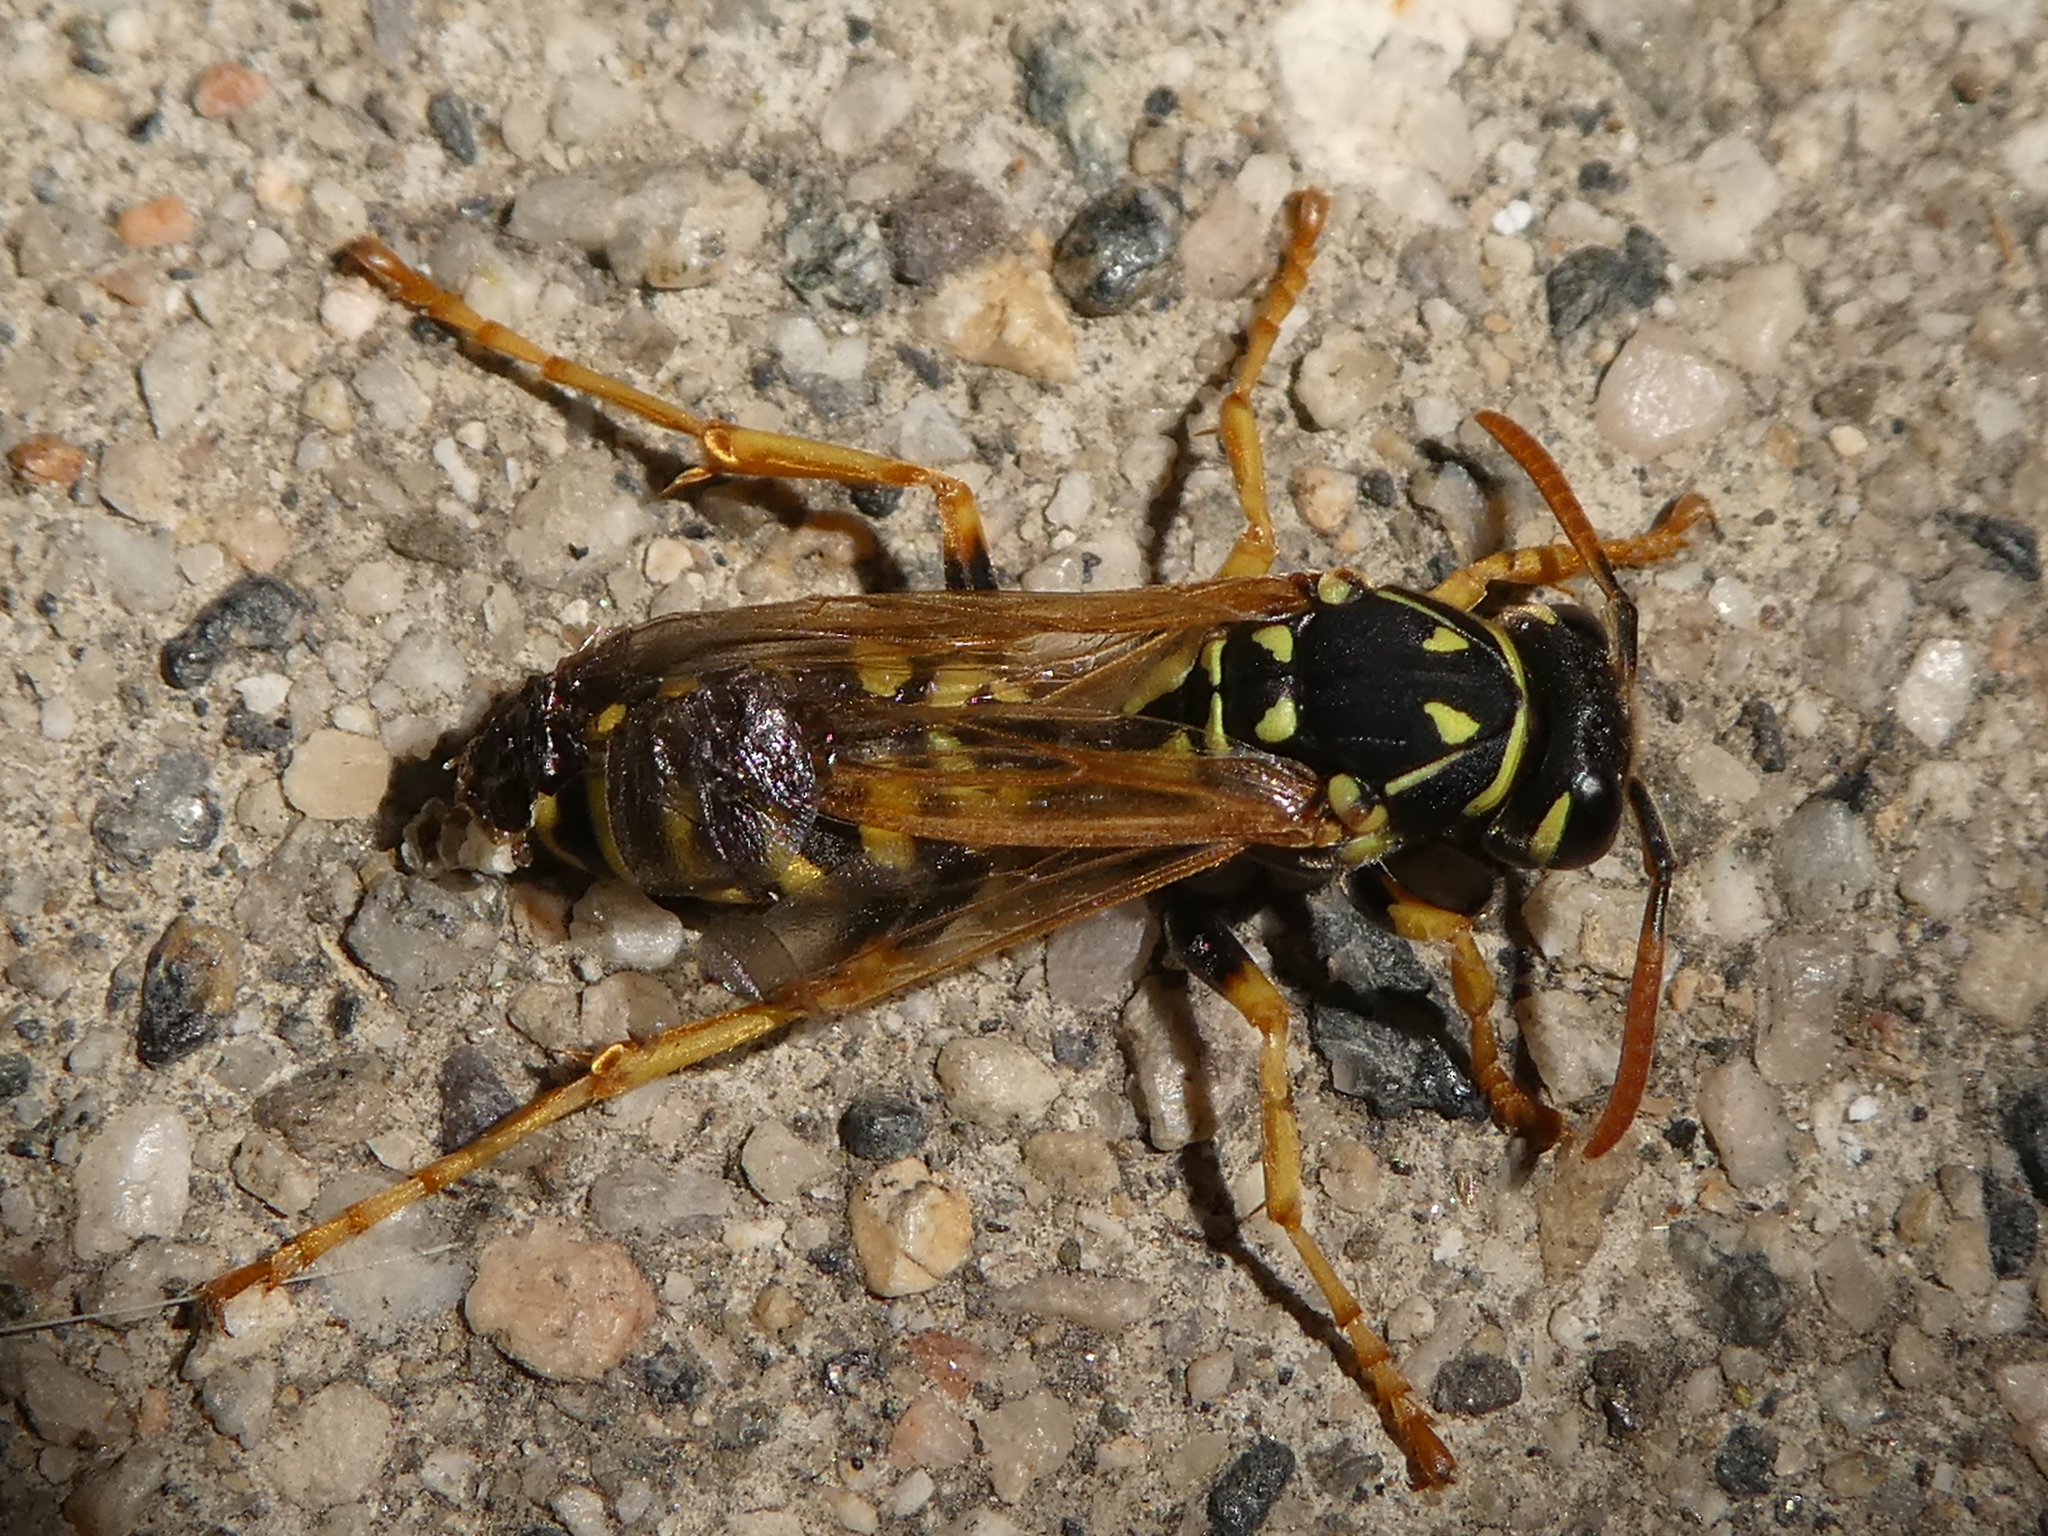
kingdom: Animalia
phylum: Arthropoda
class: Insecta
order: Hymenoptera
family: Eumenidae
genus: Polistes
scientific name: Polistes dominula
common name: Paper wasp
